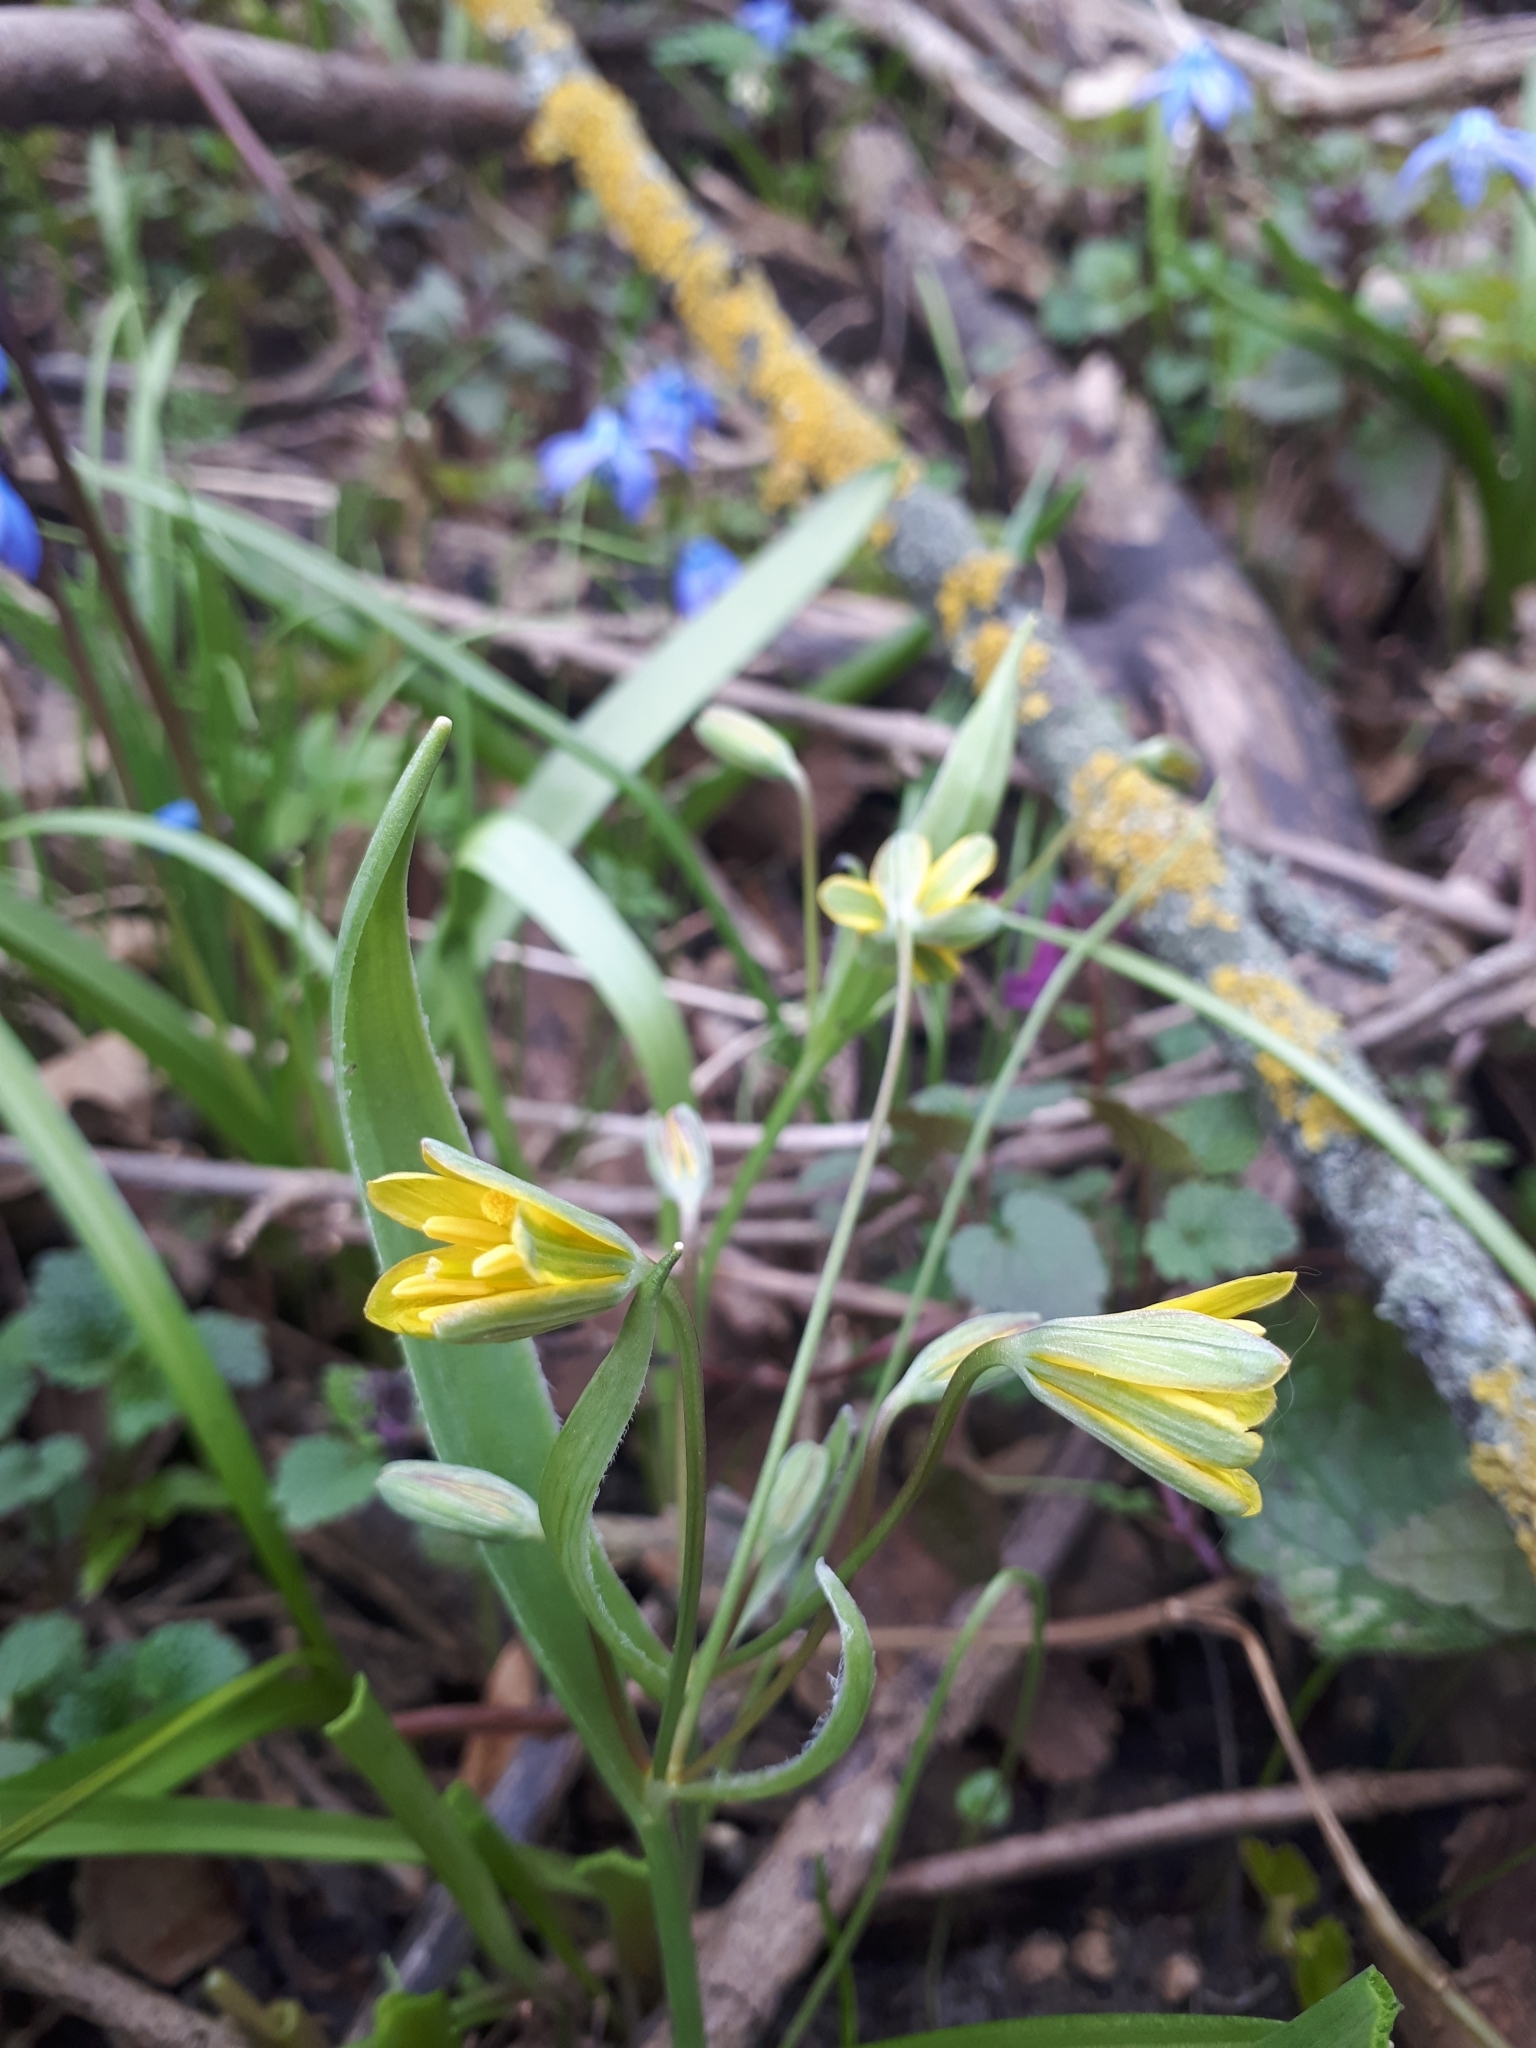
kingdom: Plantae
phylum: Tracheophyta
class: Liliopsida
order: Liliales
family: Liliaceae
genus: Gagea
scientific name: Gagea lutea
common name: Yellow star-of-bethlehem
